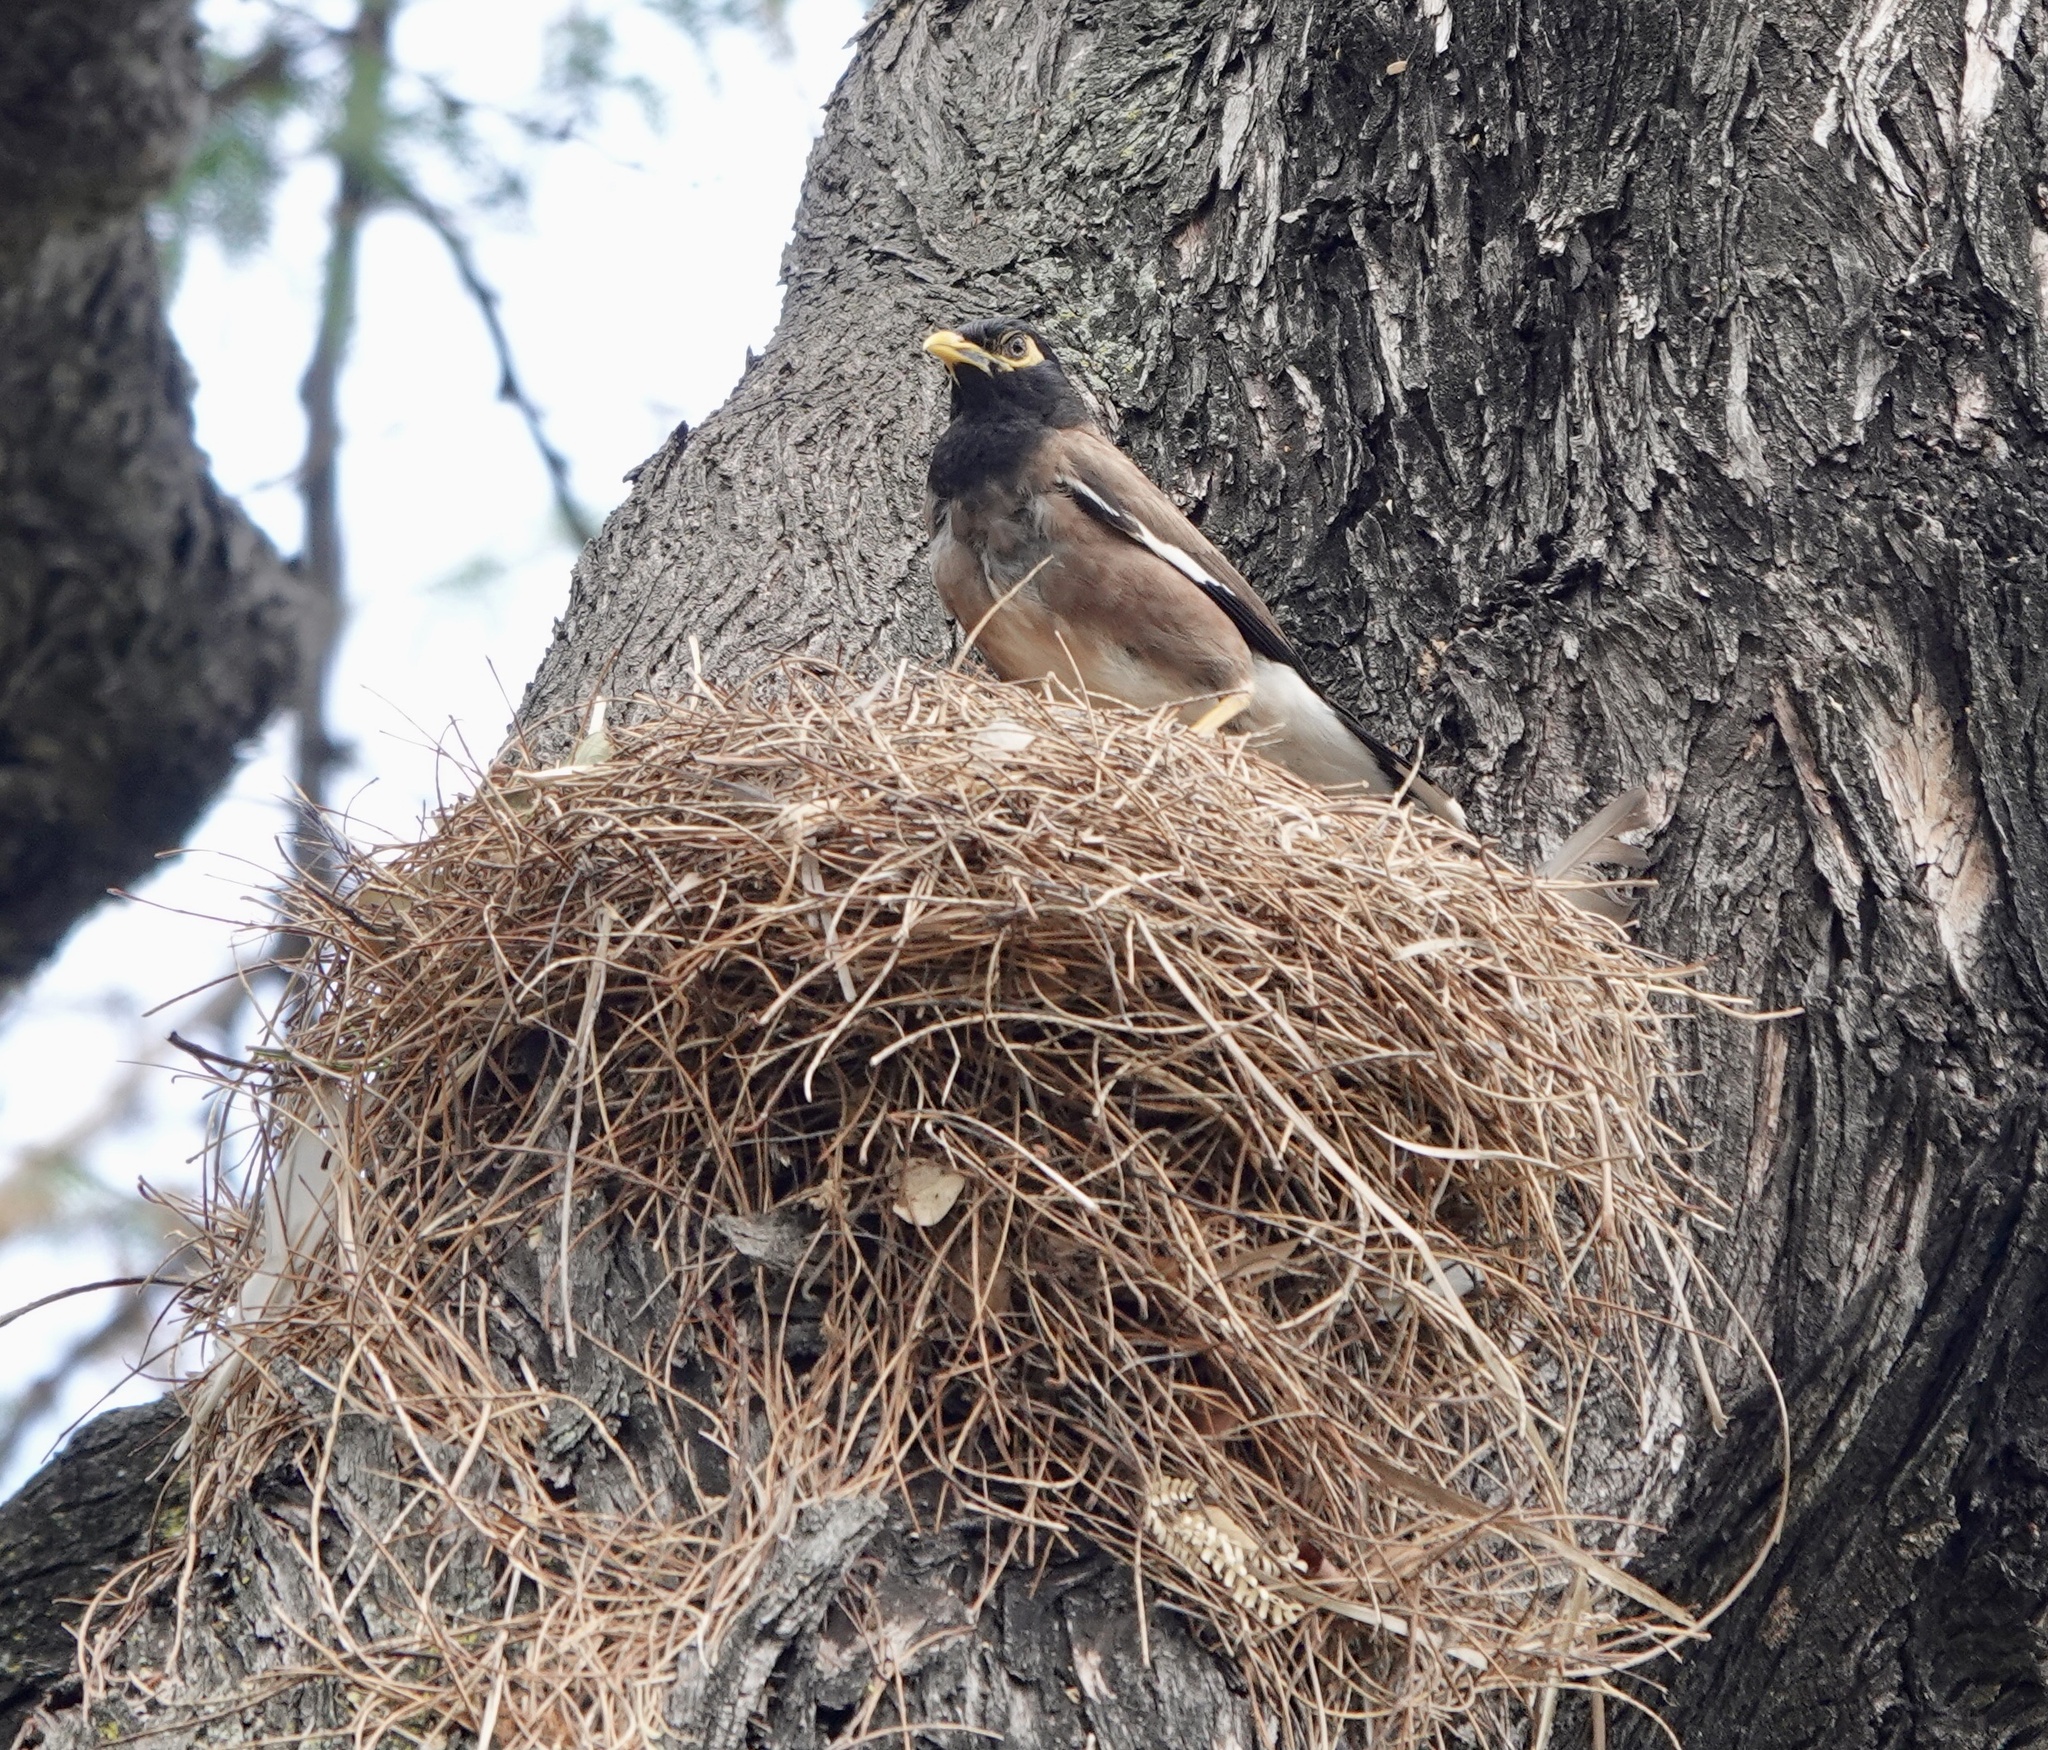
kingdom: Animalia
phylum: Chordata
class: Aves
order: Passeriformes
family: Sturnidae
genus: Acridotheres
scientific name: Acridotheres tristis
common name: Common myna
